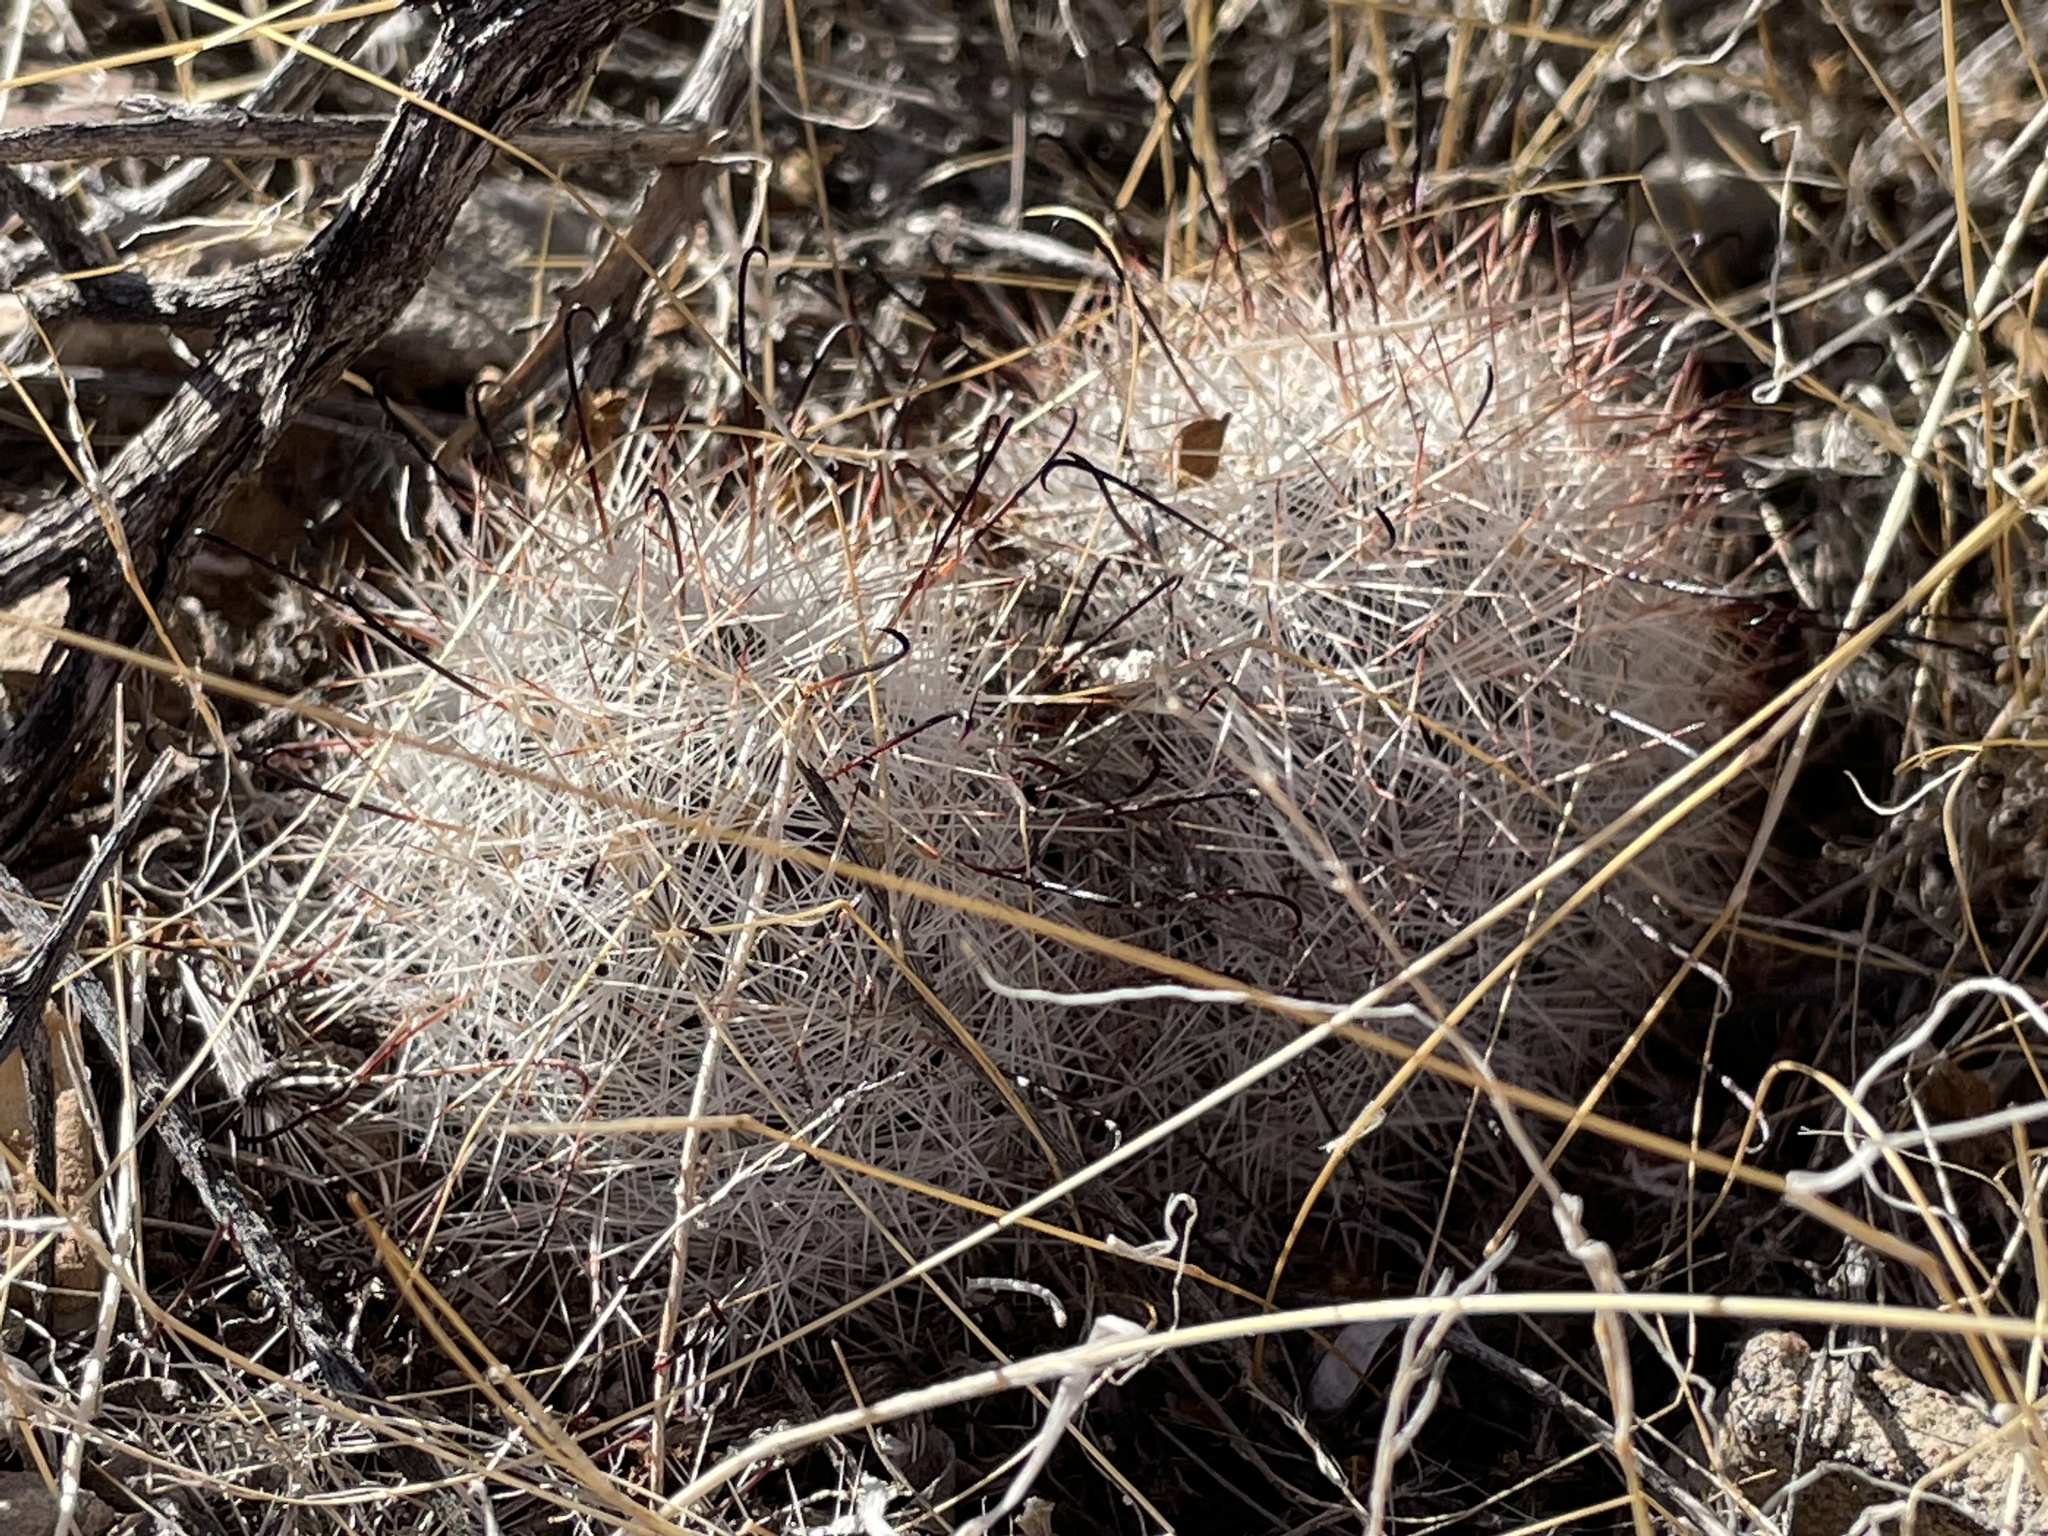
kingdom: Plantae
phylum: Tracheophyta
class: Magnoliopsida
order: Caryophyllales
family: Cactaceae
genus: Cochemiea
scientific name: Cochemiea tetrancistra
